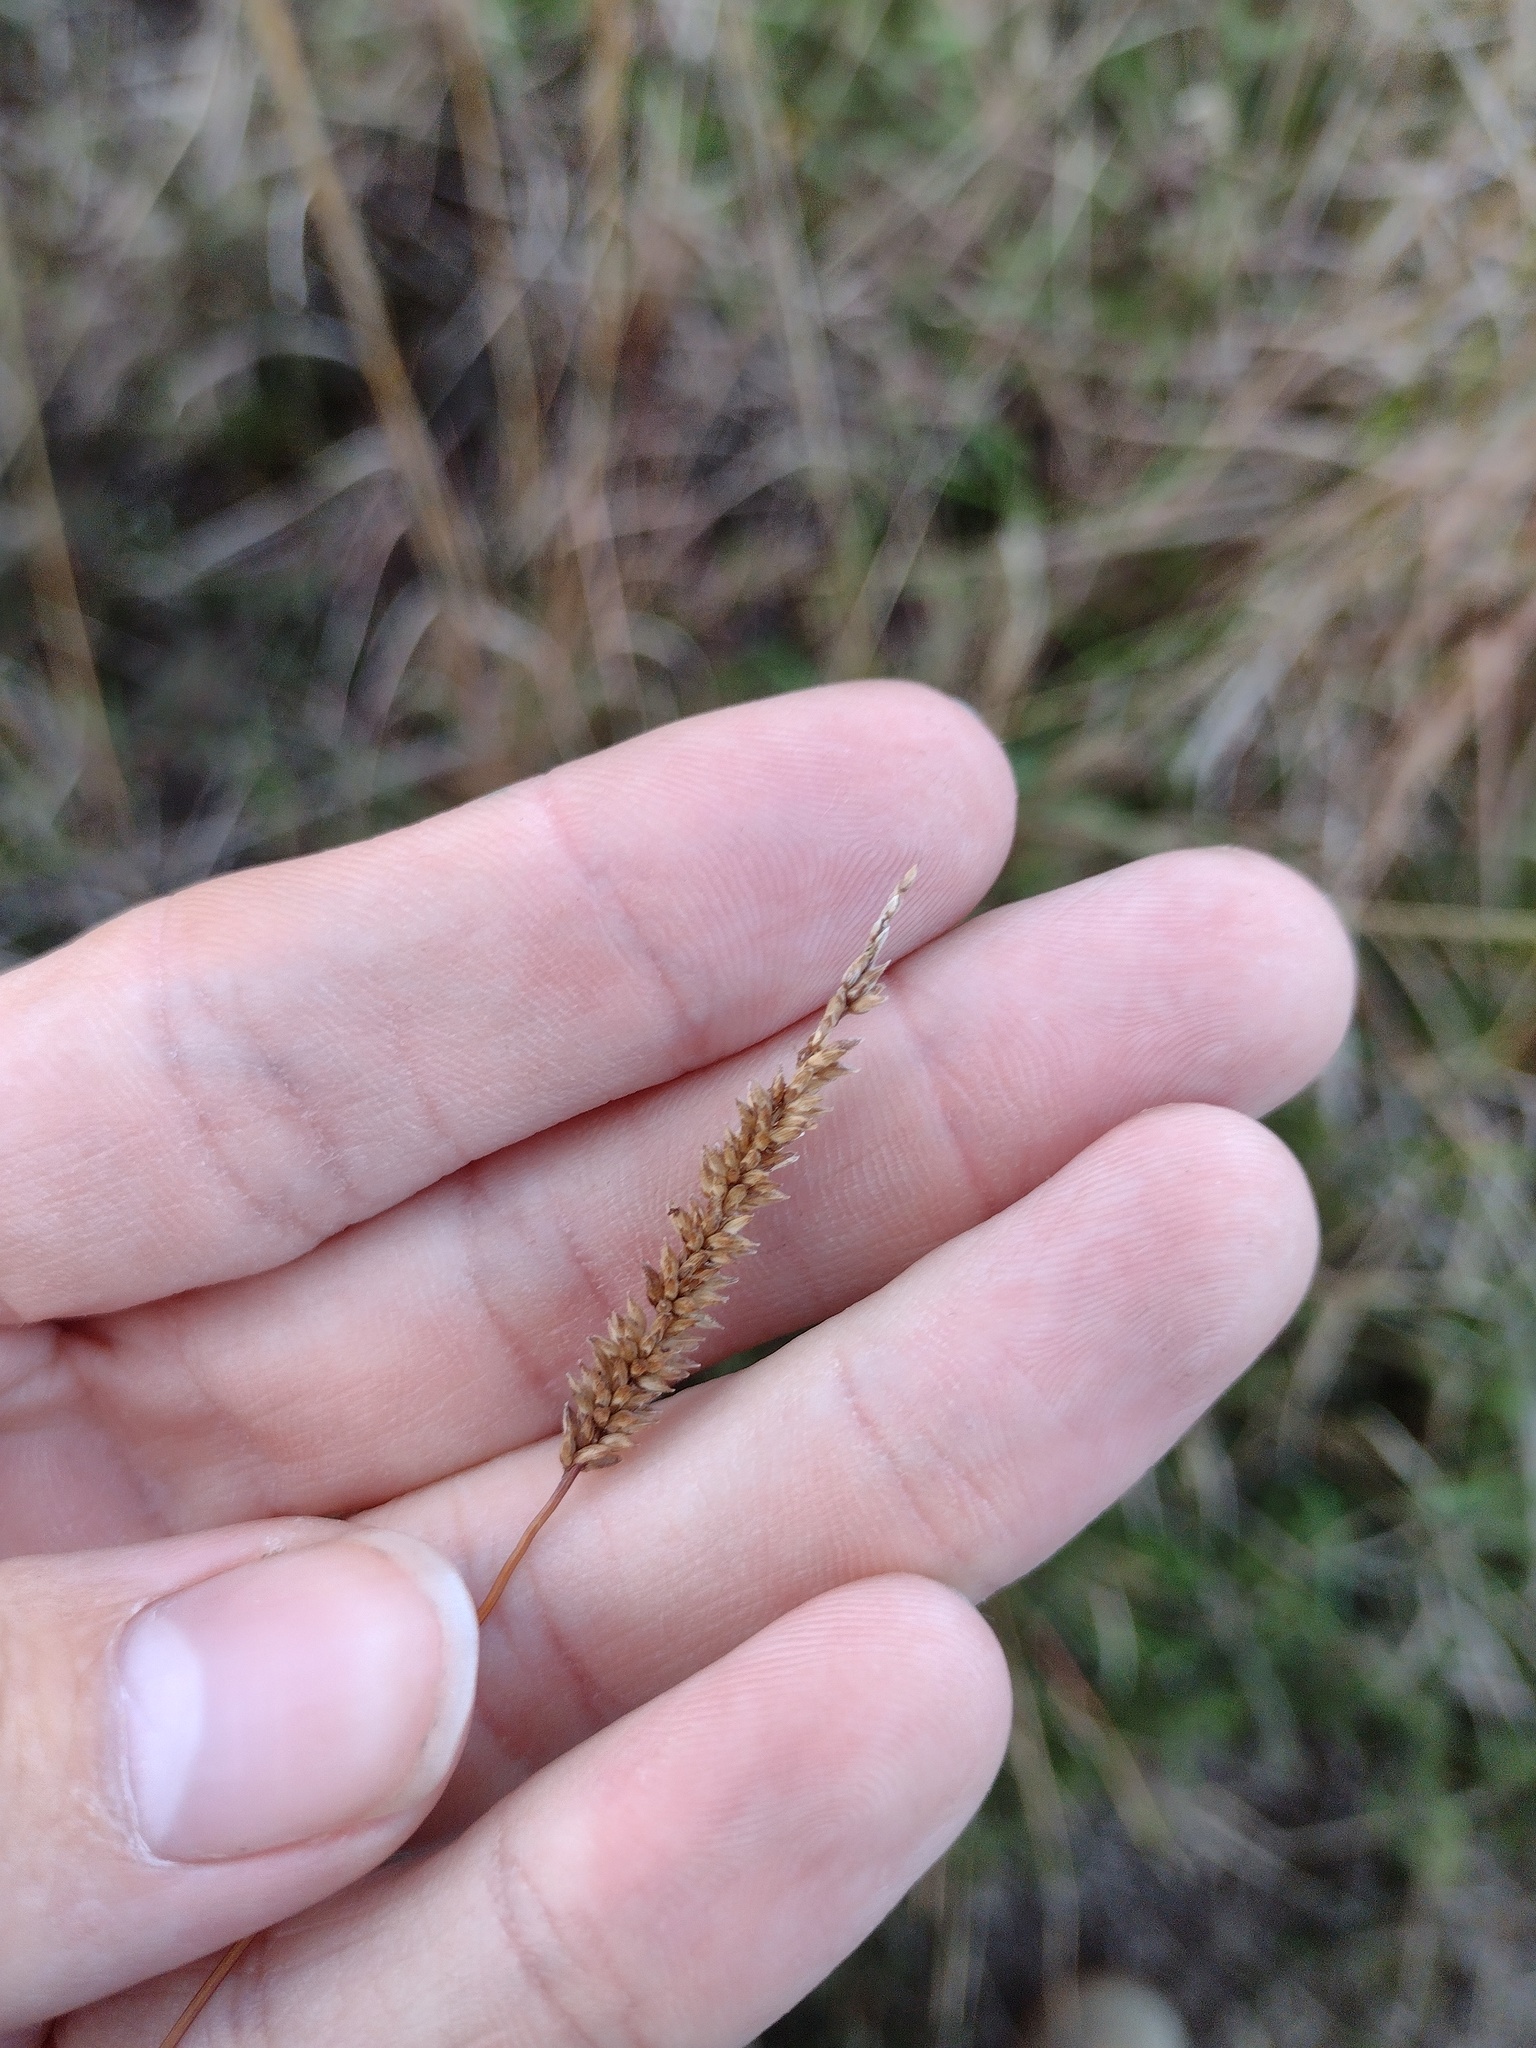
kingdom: Plantae
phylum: Tracheophyta
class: Liliopsida
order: Poales
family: Poaceae
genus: Sacciolepis
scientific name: Sacciolepis indica
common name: Glenwoodgrass
